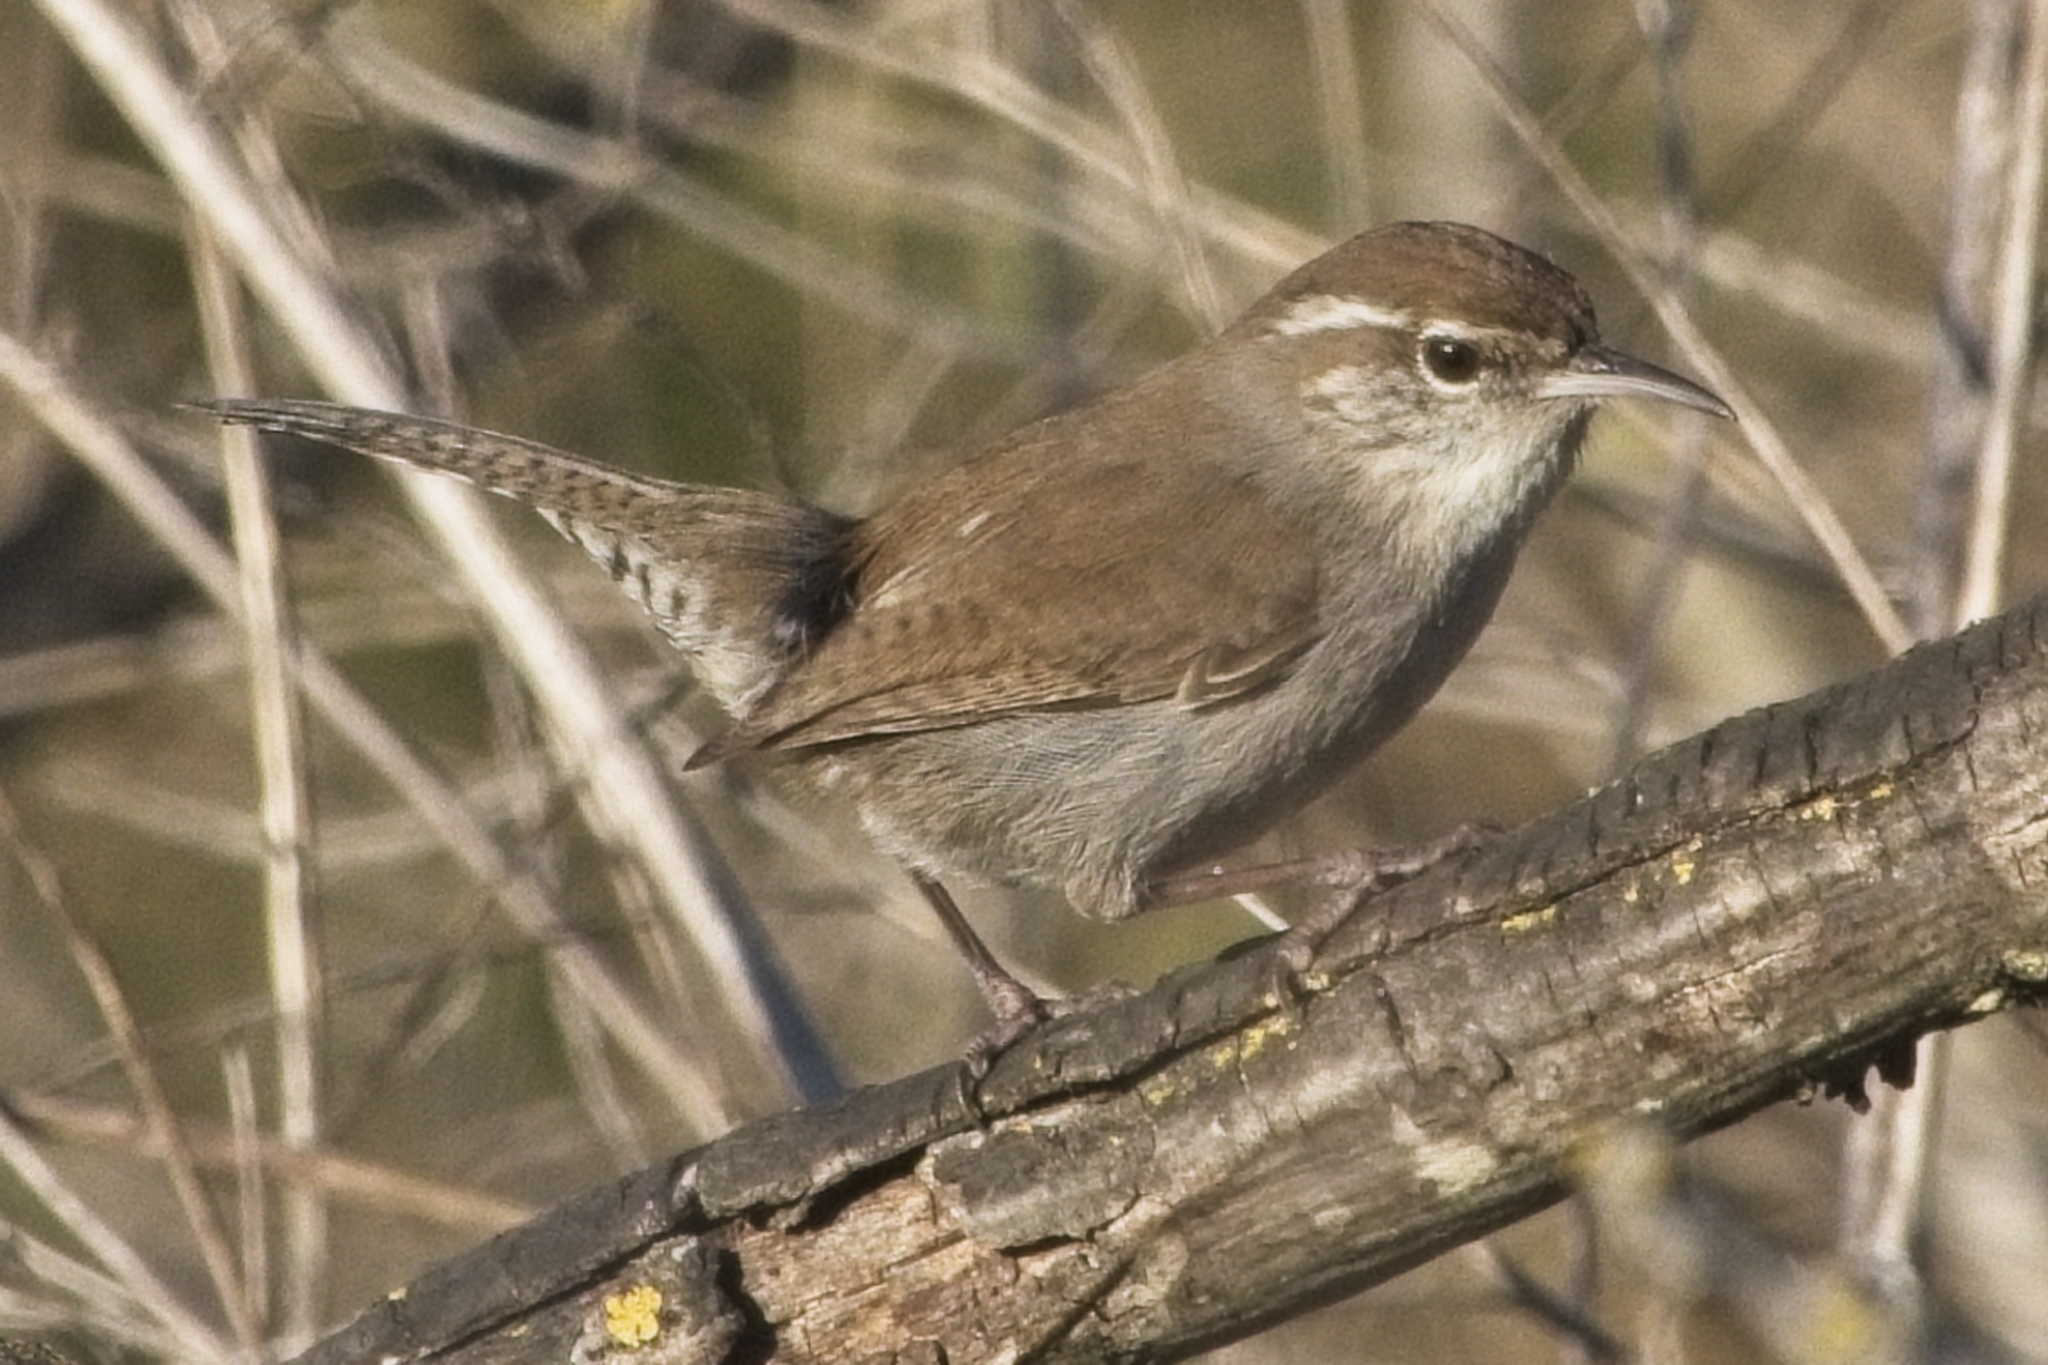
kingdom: Animalia
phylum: Chordata
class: Aves
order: Passeriformes
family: Troglodytidae
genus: Thryomanes
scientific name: Thryomanes bewickii
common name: Bewick's wren
